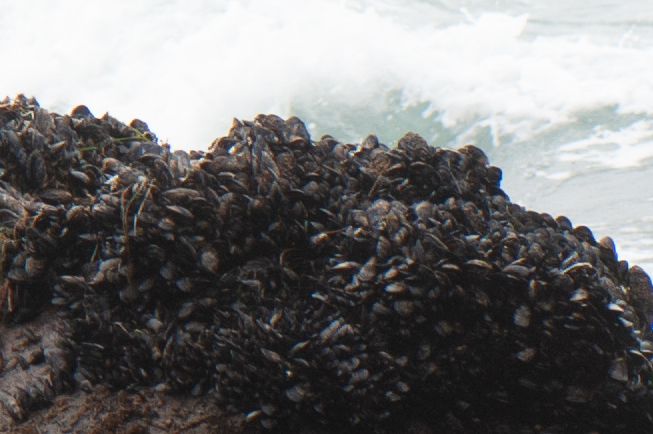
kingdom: Animalia
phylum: Mollusca
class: Bivalvia
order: Mytilida
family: Mytilidae
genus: Mytilus
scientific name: Mytilus californianus
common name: California mussel
